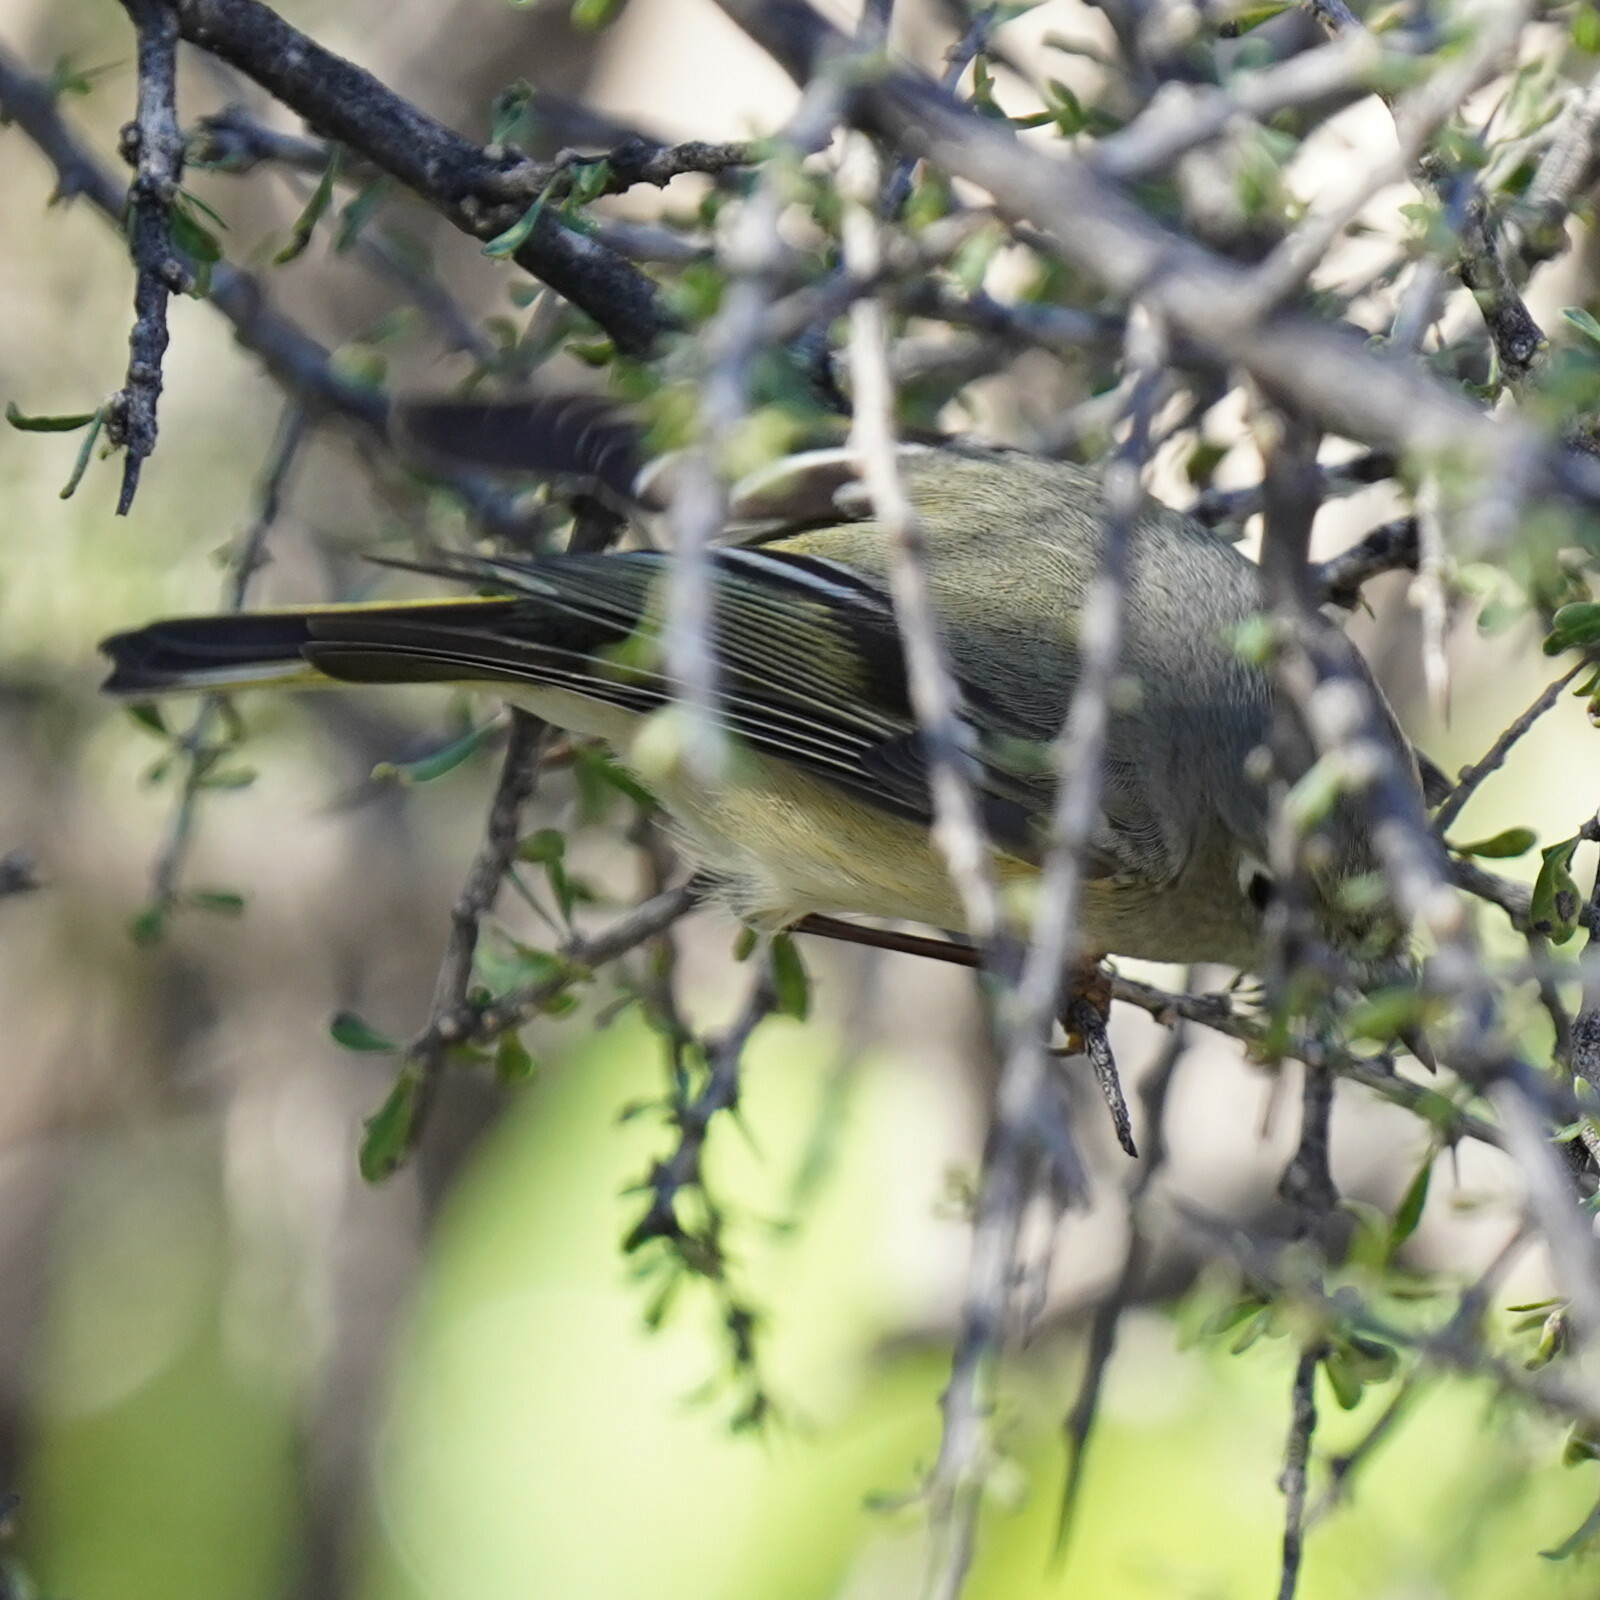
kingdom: Animalia
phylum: Chordata
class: Aves
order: Passeriformes
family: Regulidae
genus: Regulus
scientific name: Regulus calendula
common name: Ruby-crowned kinglet
